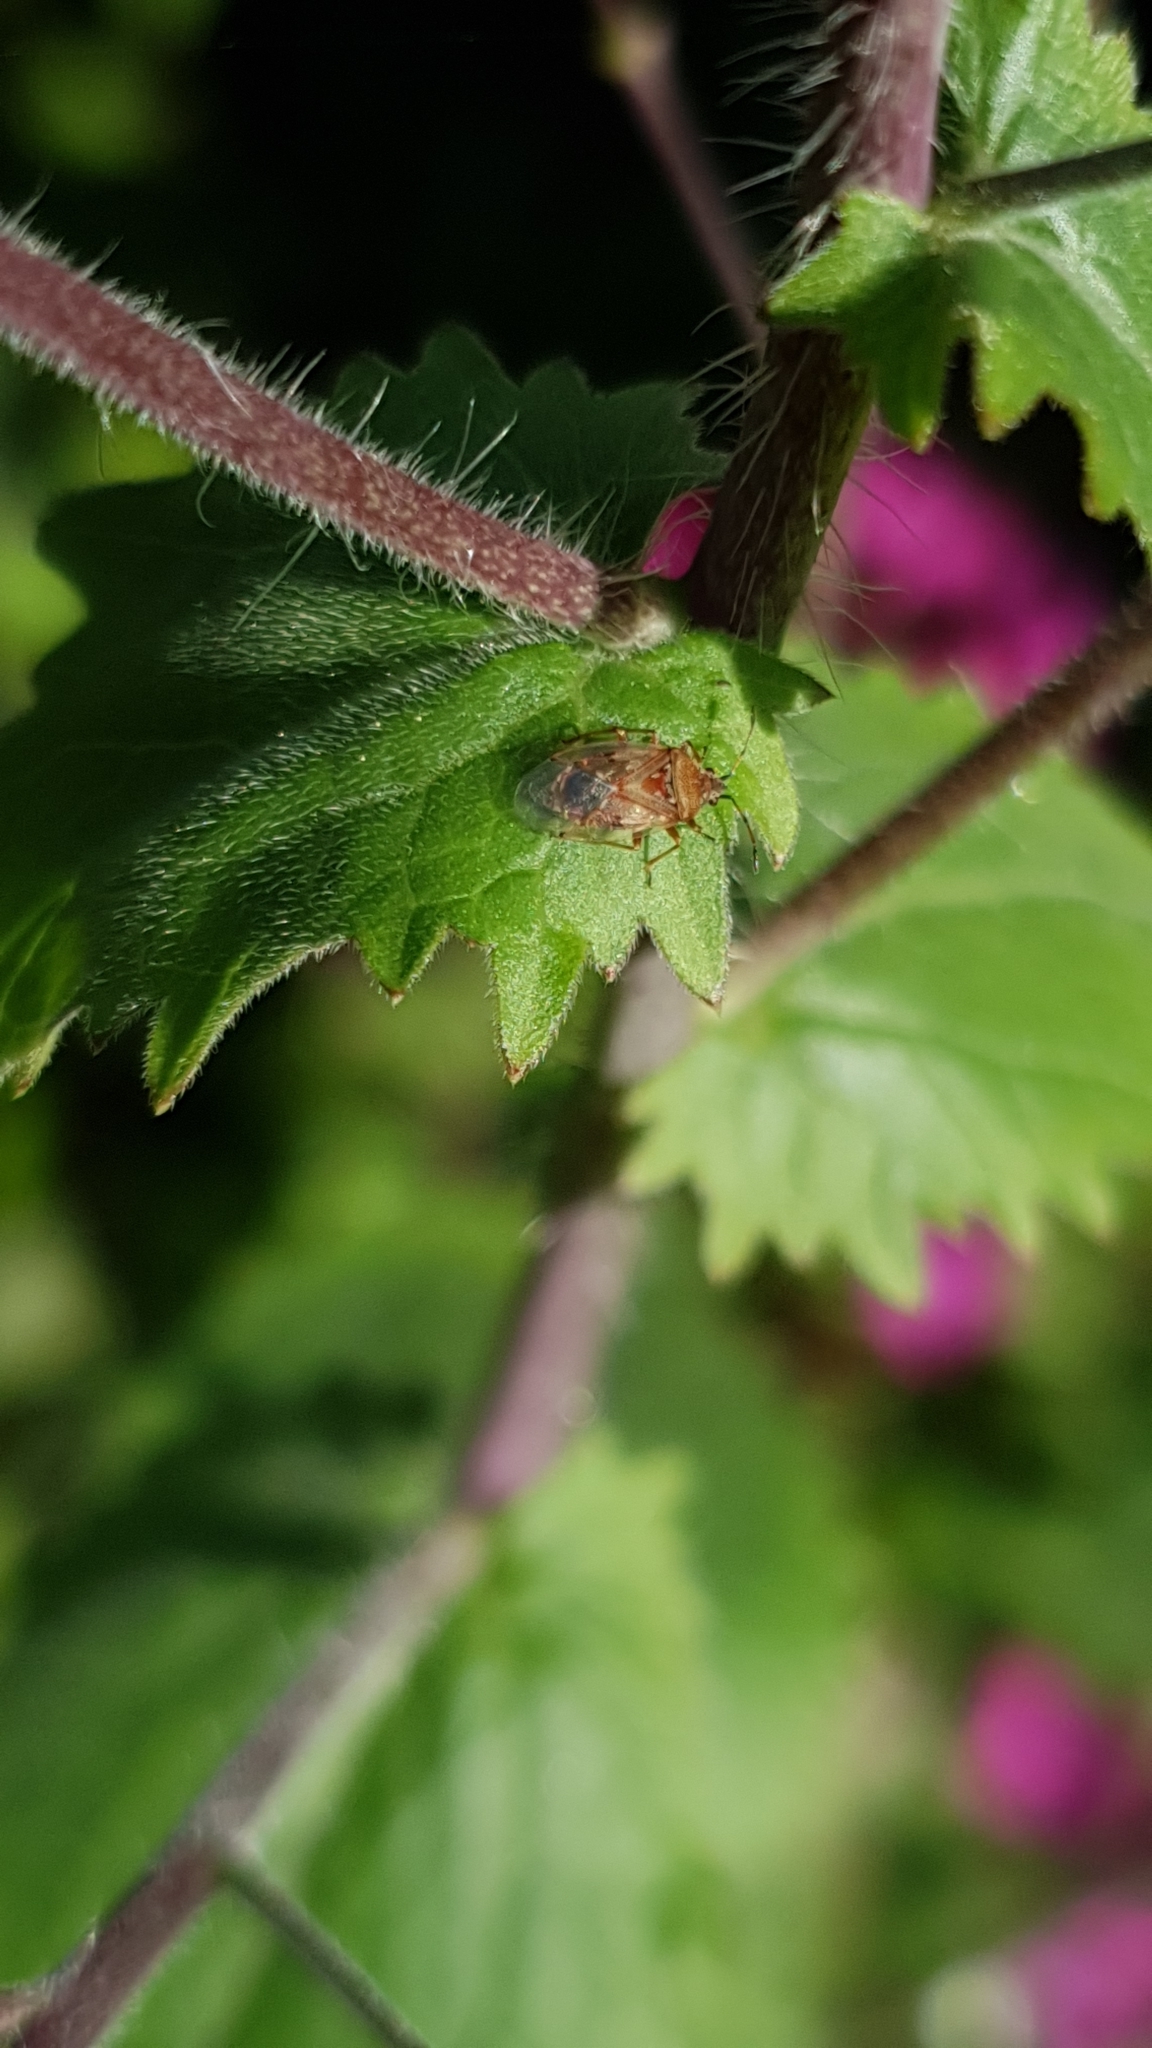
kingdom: Animalia
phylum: Arthropoda
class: Insecta
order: Hemiptera
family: Lygaeidae
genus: Kleidocerys
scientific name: Kleidocerys resedae
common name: Birch catkin bug
